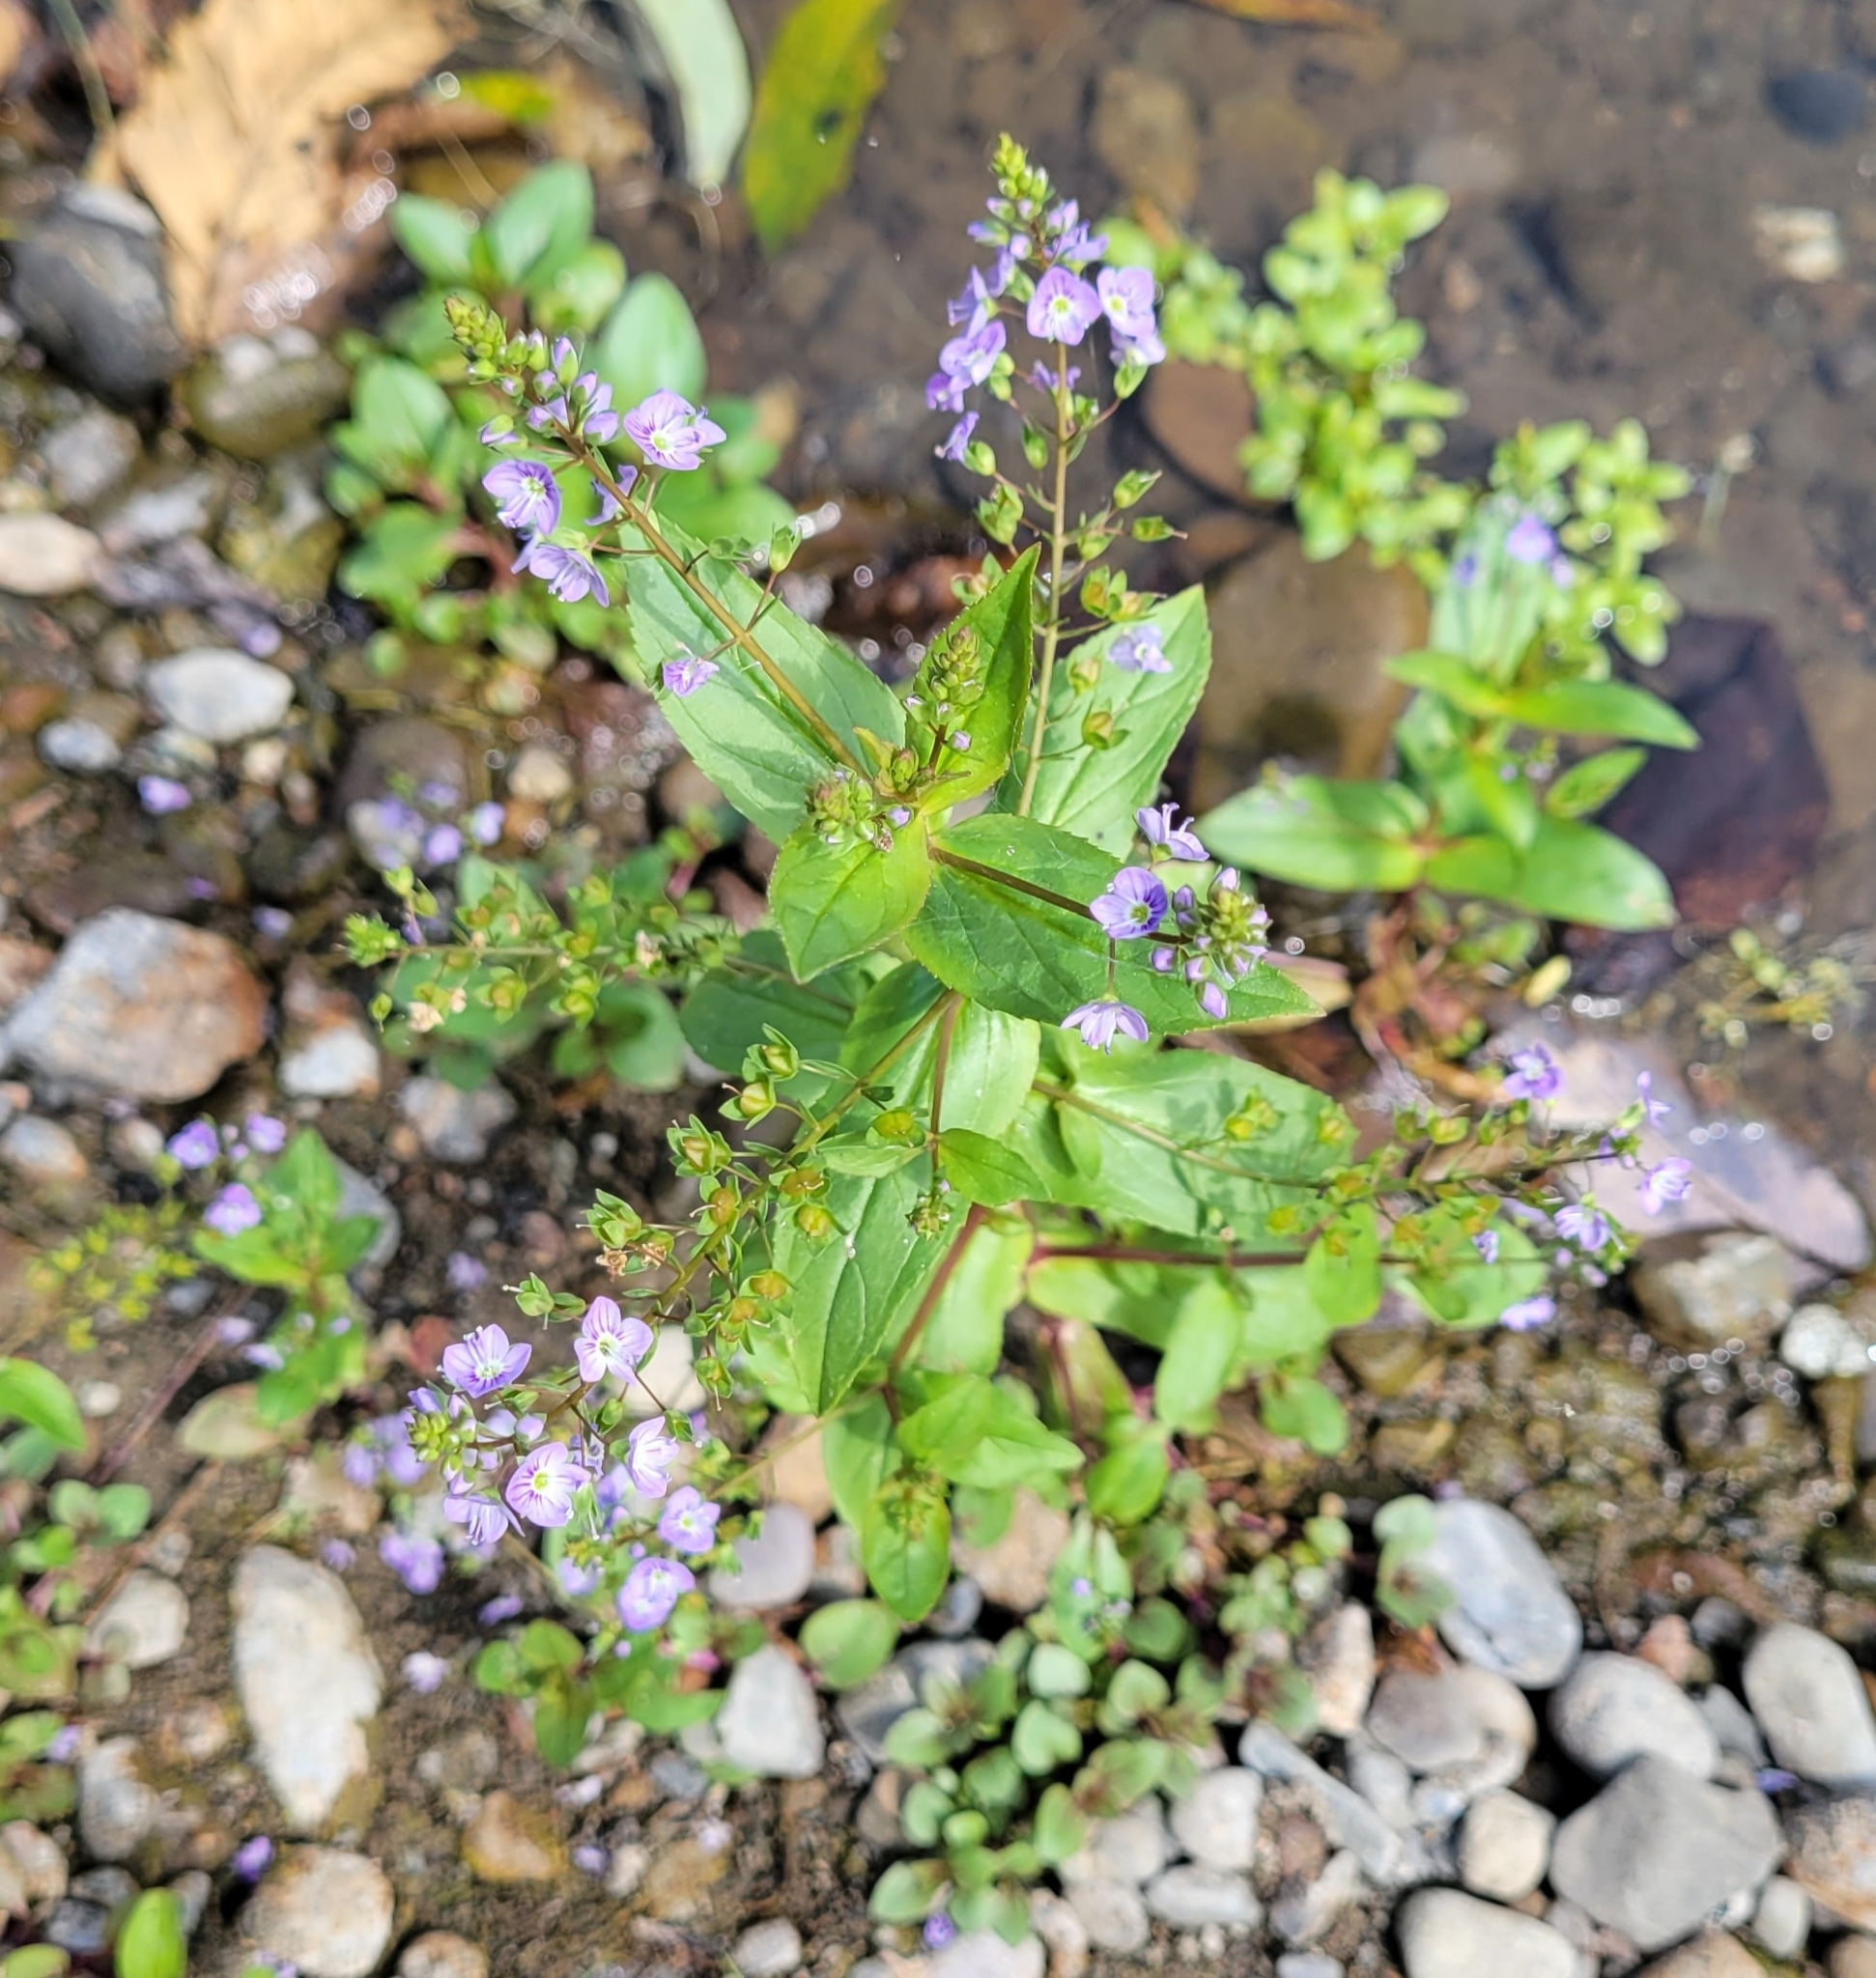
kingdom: Plantae
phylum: Tracheophyta
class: Magnoliopsida
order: Lamiales
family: Plantaginaceae
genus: Veronica
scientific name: Veronica anagallis-aquatica
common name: Water speedwell
